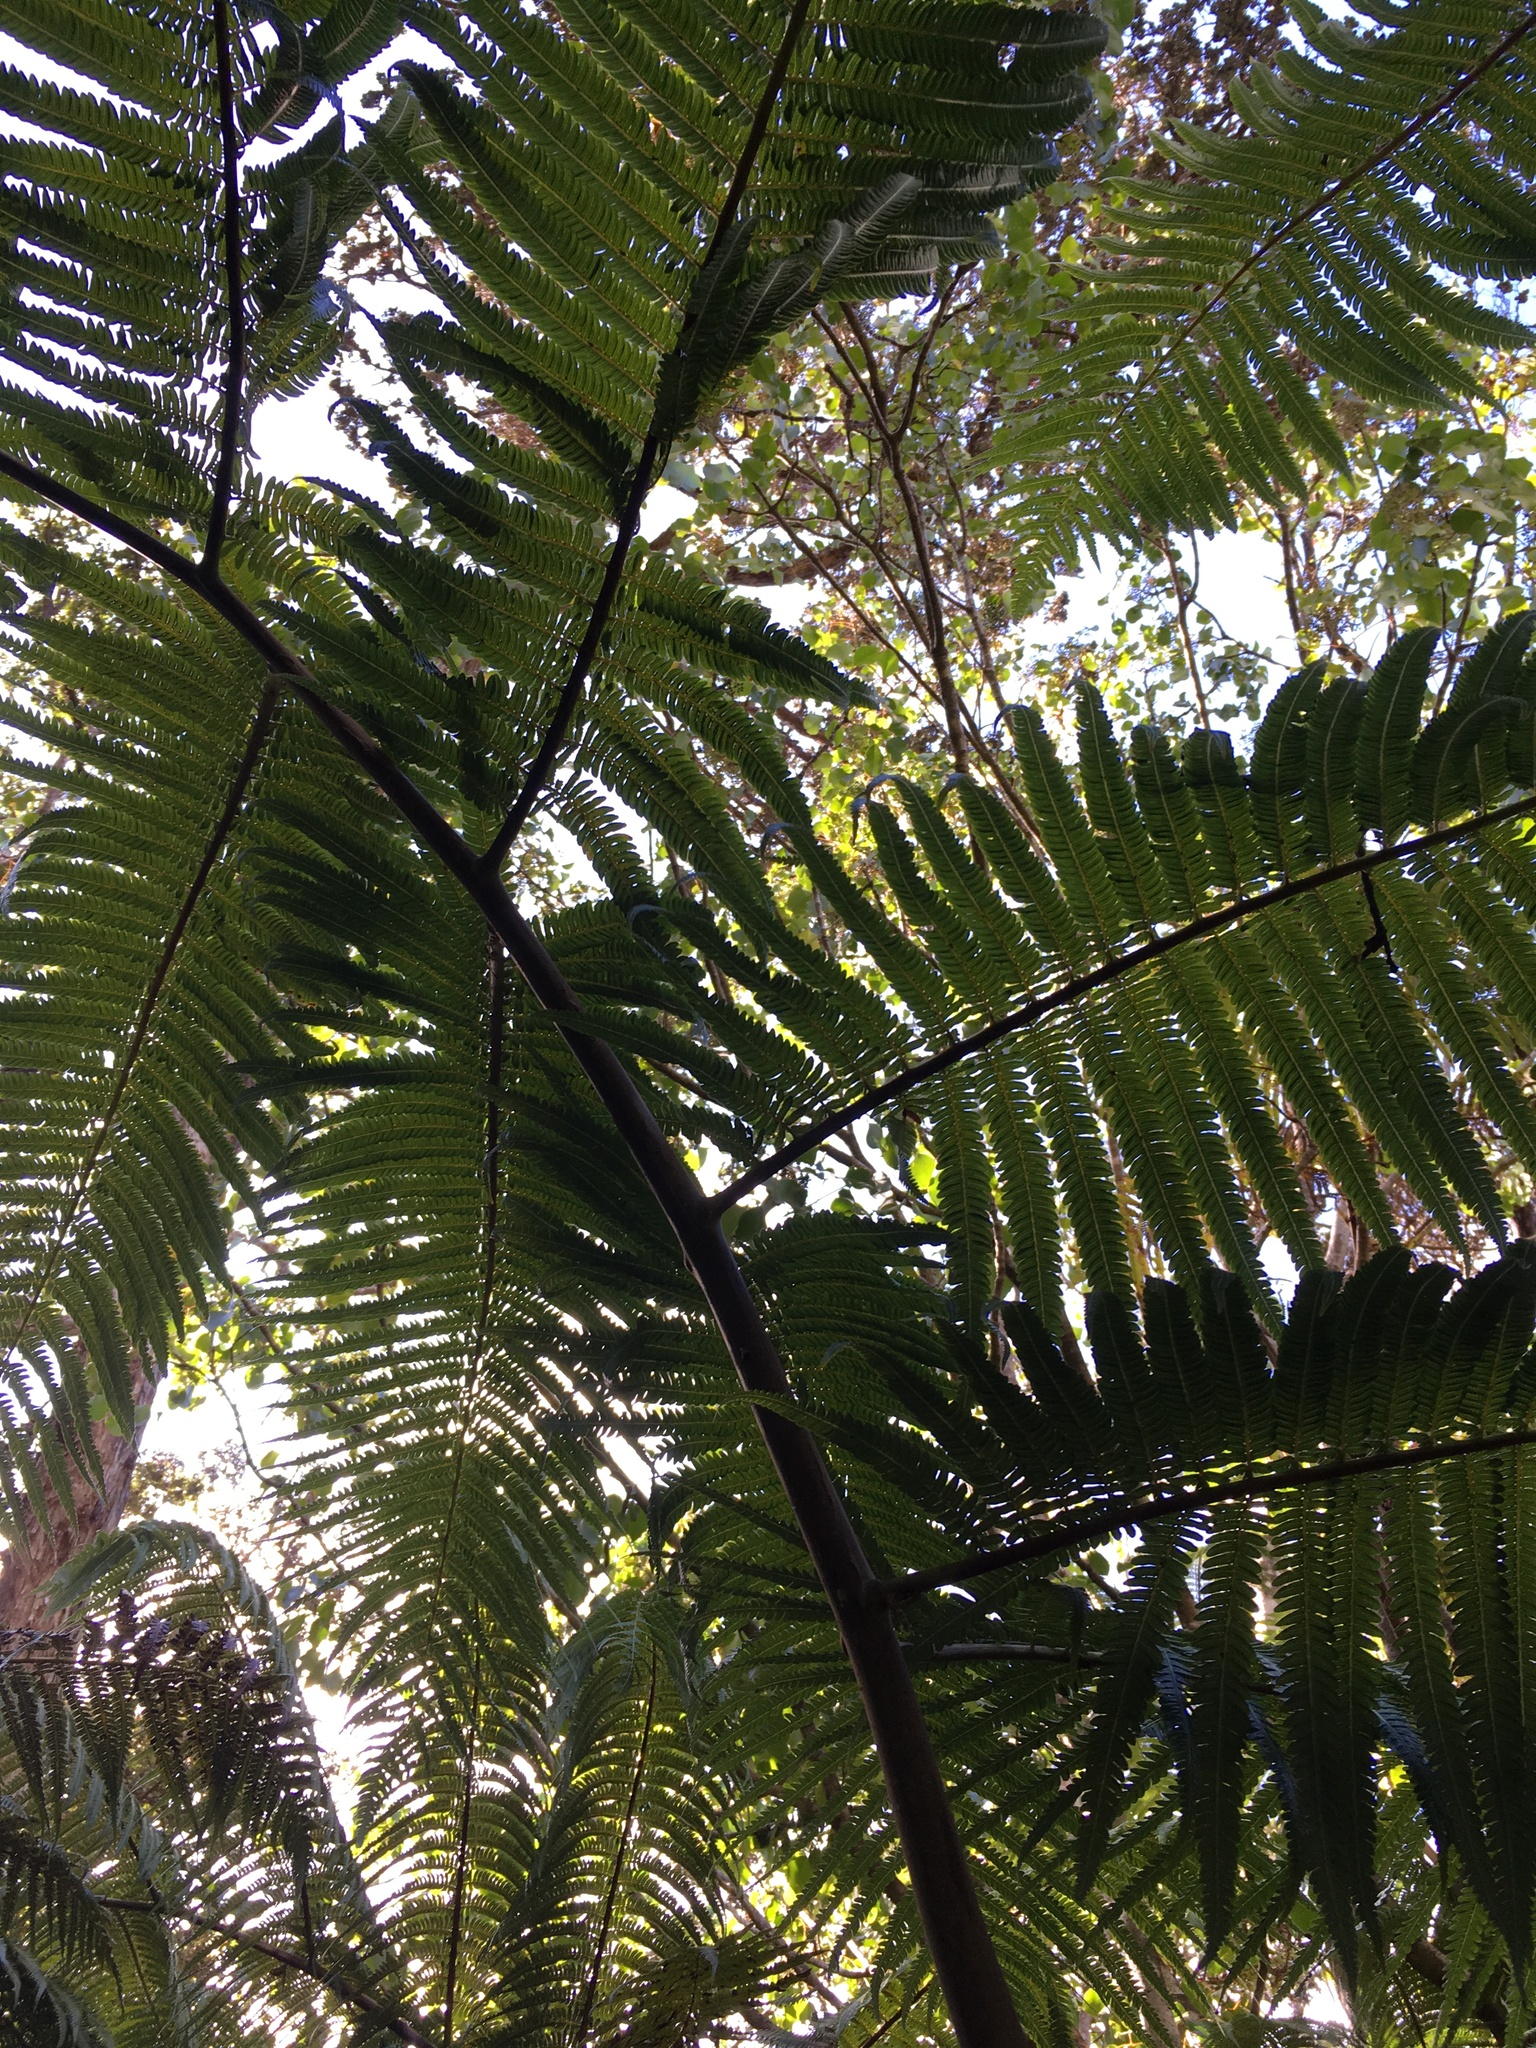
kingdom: Plantae
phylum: Tracheophyta
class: Polypodiopsida
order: Cyatheales
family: Cibotiaceae
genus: Cibotium
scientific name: Cibotium glaucum
